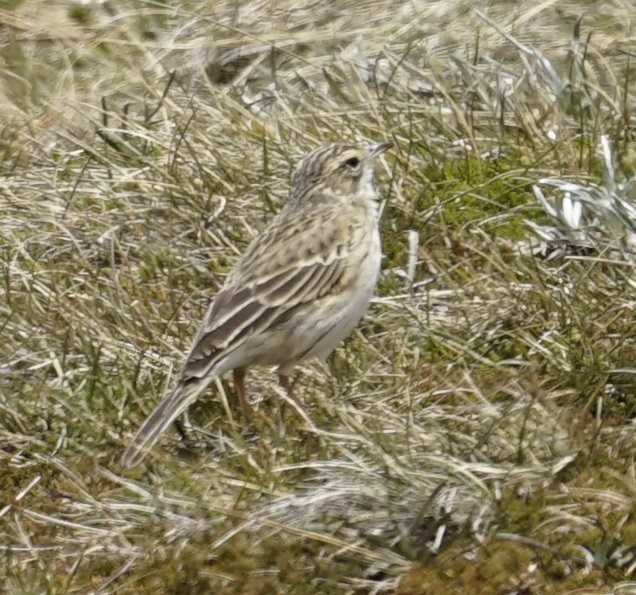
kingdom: Animalia
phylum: Chordata
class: Aves
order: Passeriformes
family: Motacillidae
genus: Anthus
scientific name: Anthus australis
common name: Australian pipit
